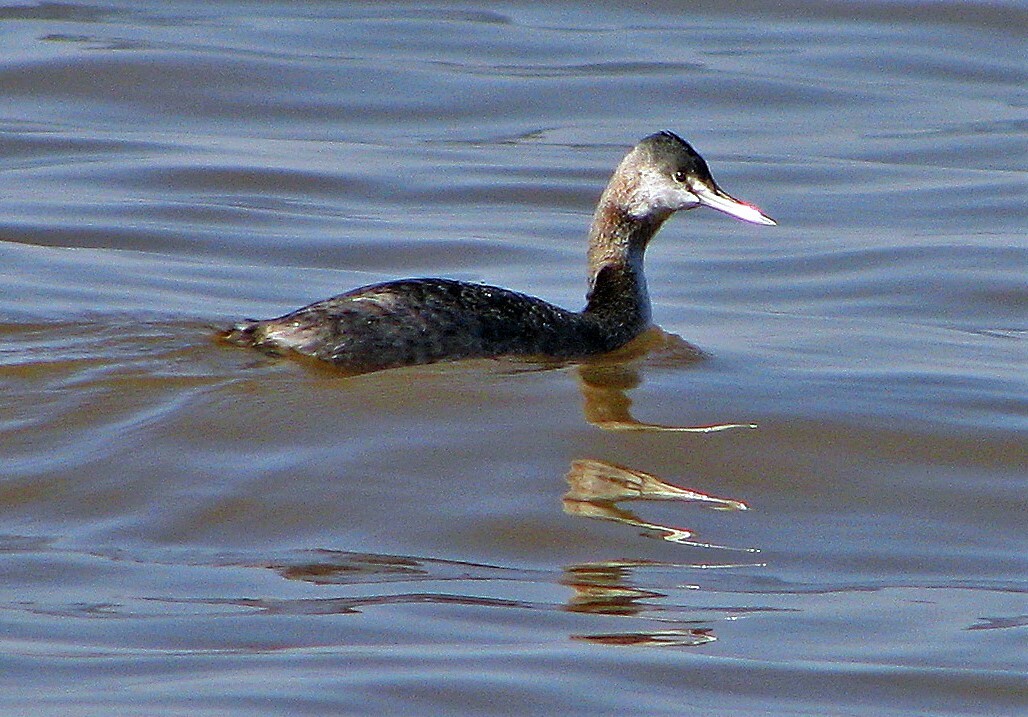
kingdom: Animalia
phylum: Chordata
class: Aves
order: Podicipediformes
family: Podicipedidae
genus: Podiceps
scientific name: Podiceps major
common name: Great grebe
